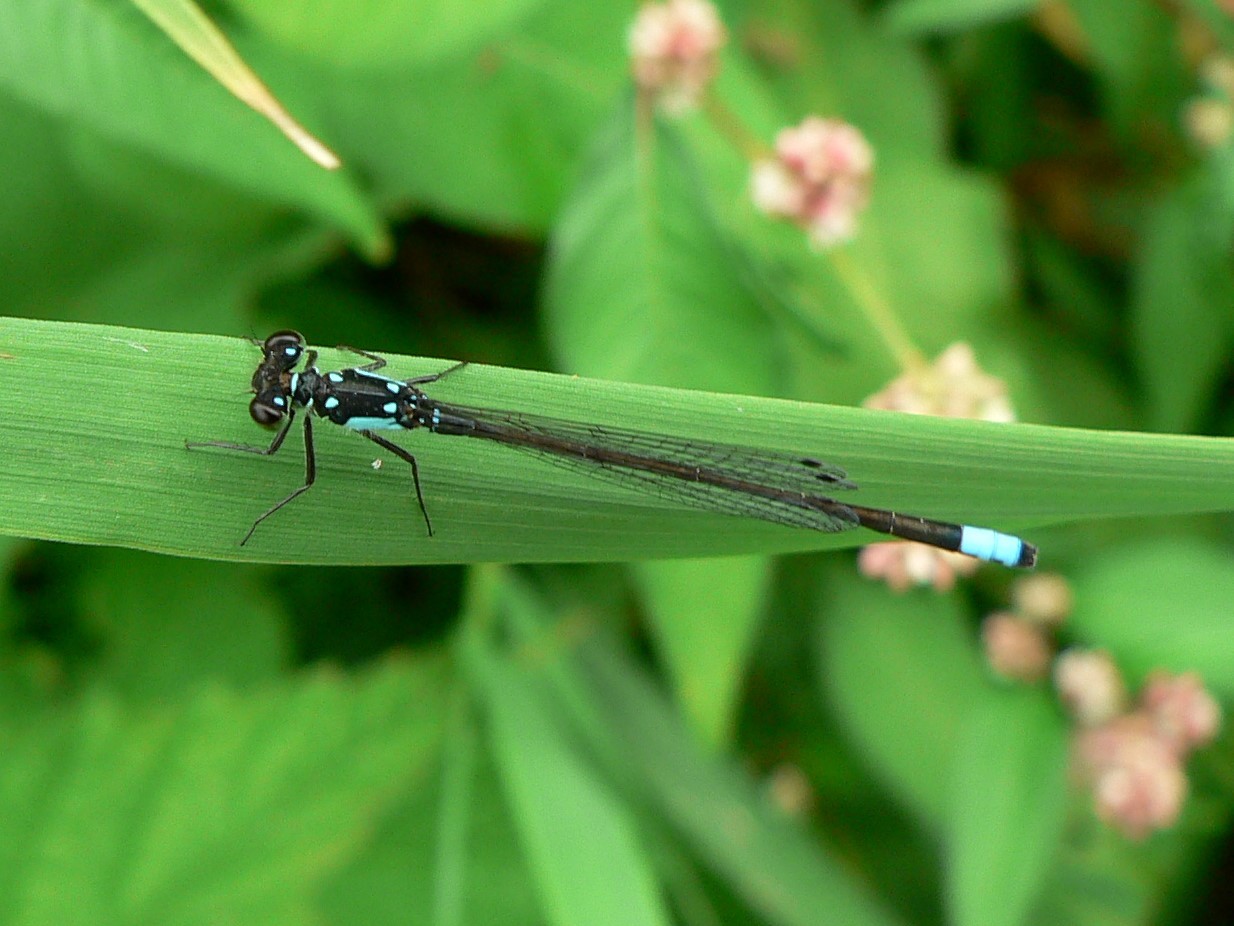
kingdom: Animalia
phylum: Arthropoda
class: Insecta
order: Odonata
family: Coenagrionidae
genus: Ischnura
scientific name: Ischnura cervula
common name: Pacific forktail
